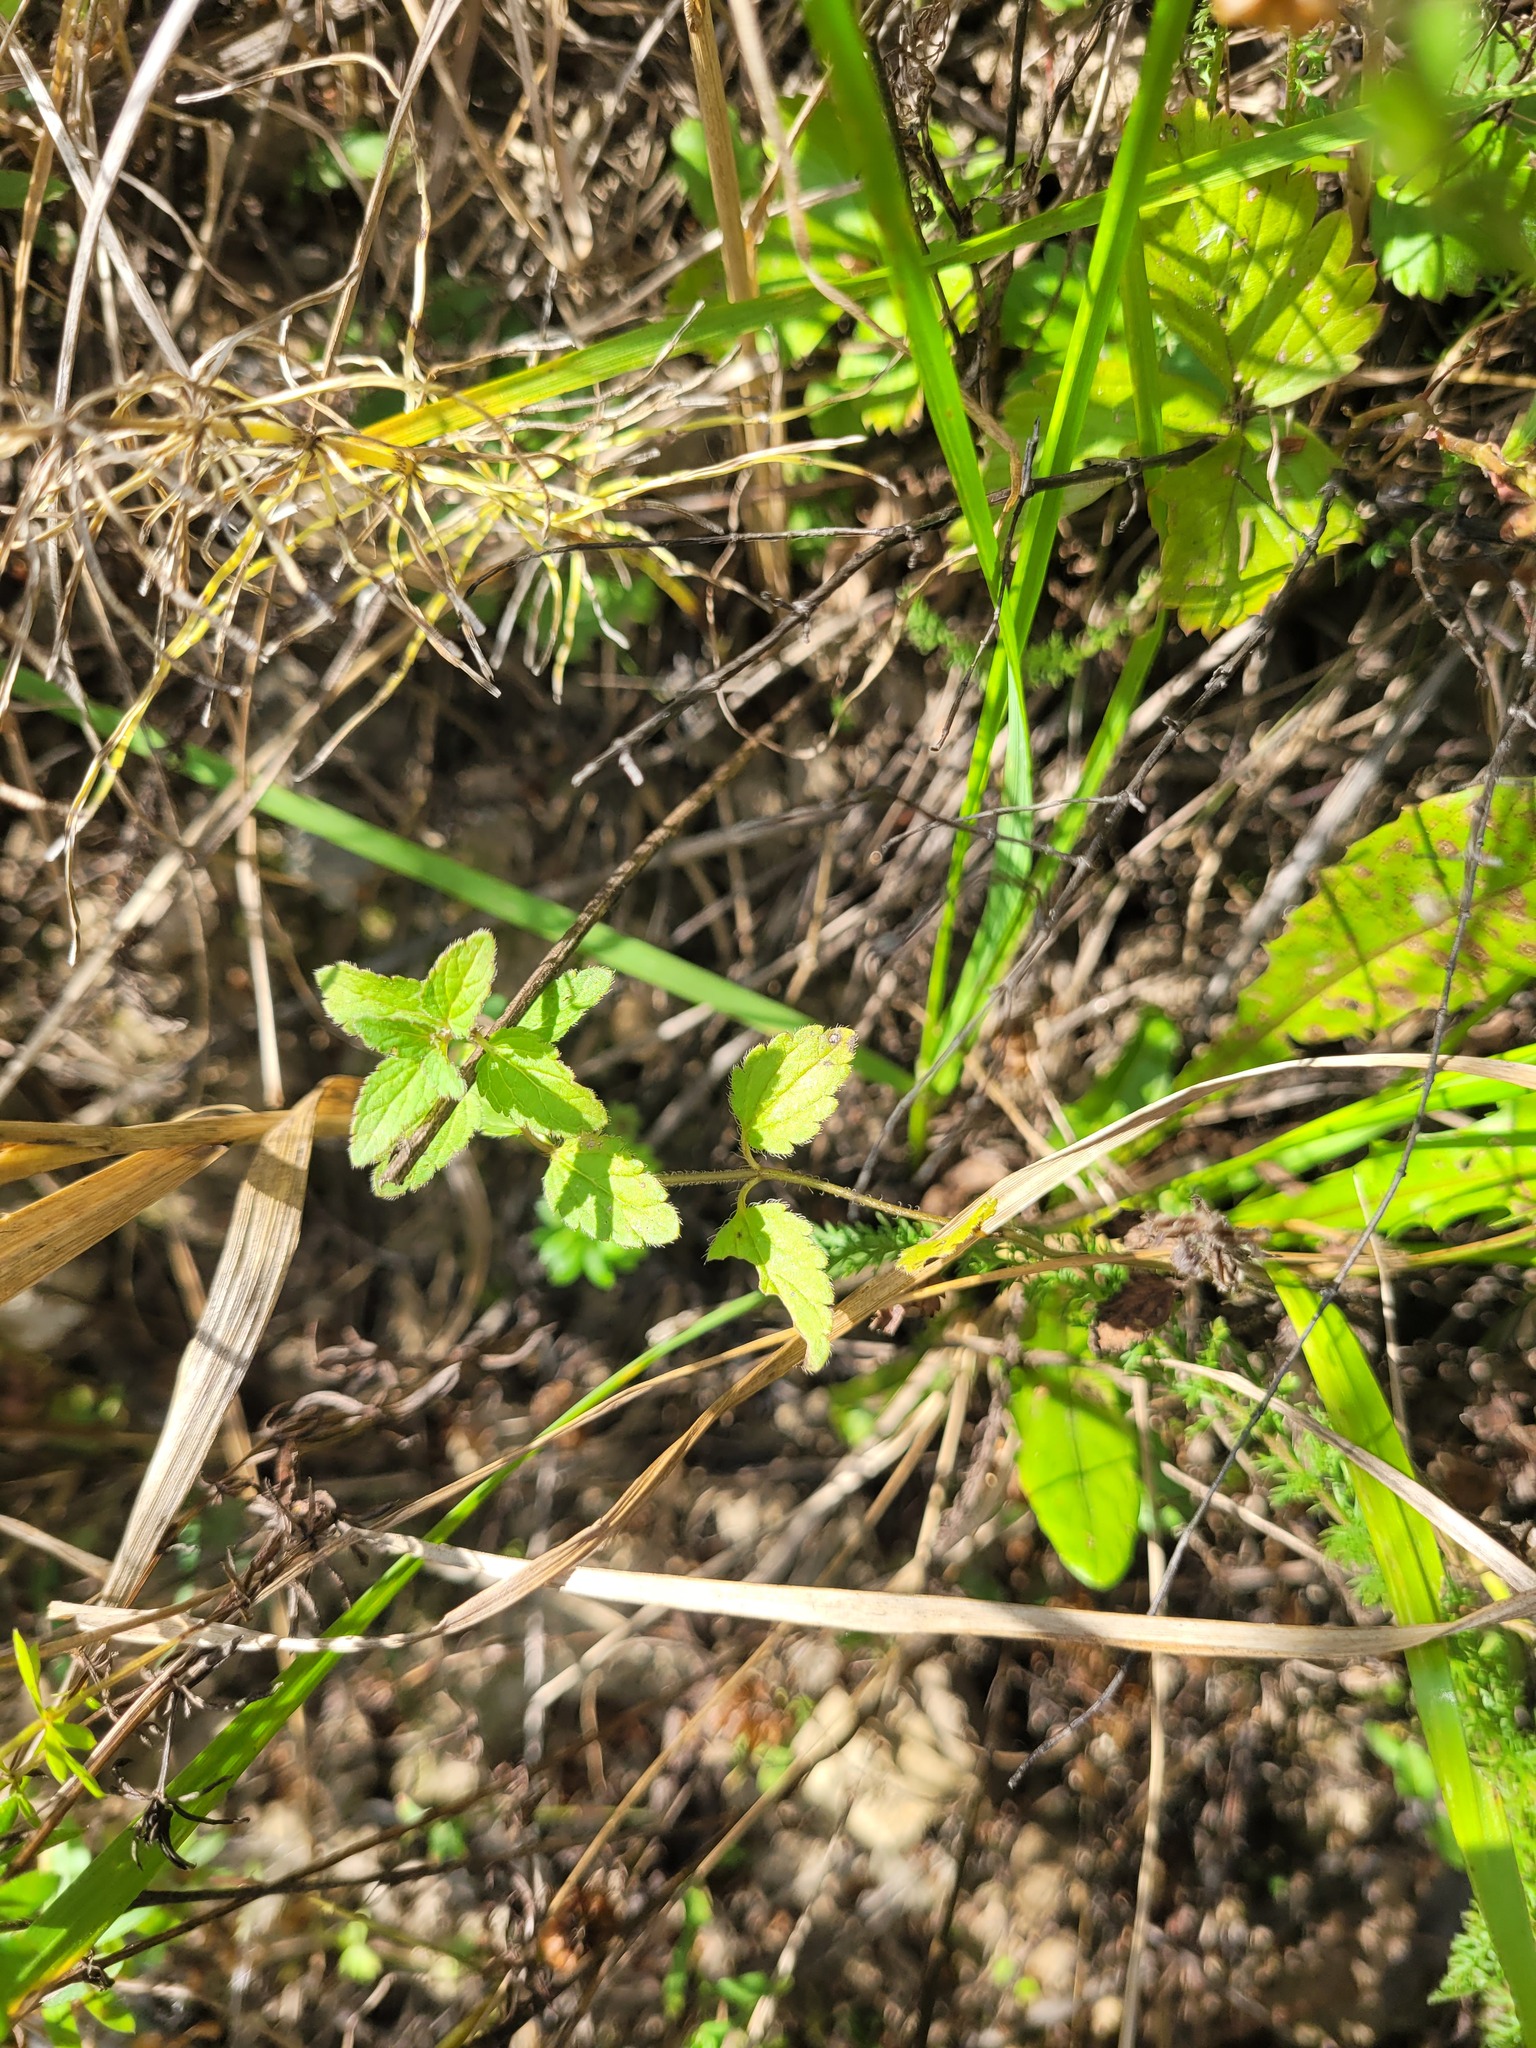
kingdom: Plantae
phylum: Tracheophyta
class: Magnoliopsida
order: Lamiales
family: Plantaginaceae
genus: Veronica
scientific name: Veronica chamaedrys
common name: Germander speedwell
